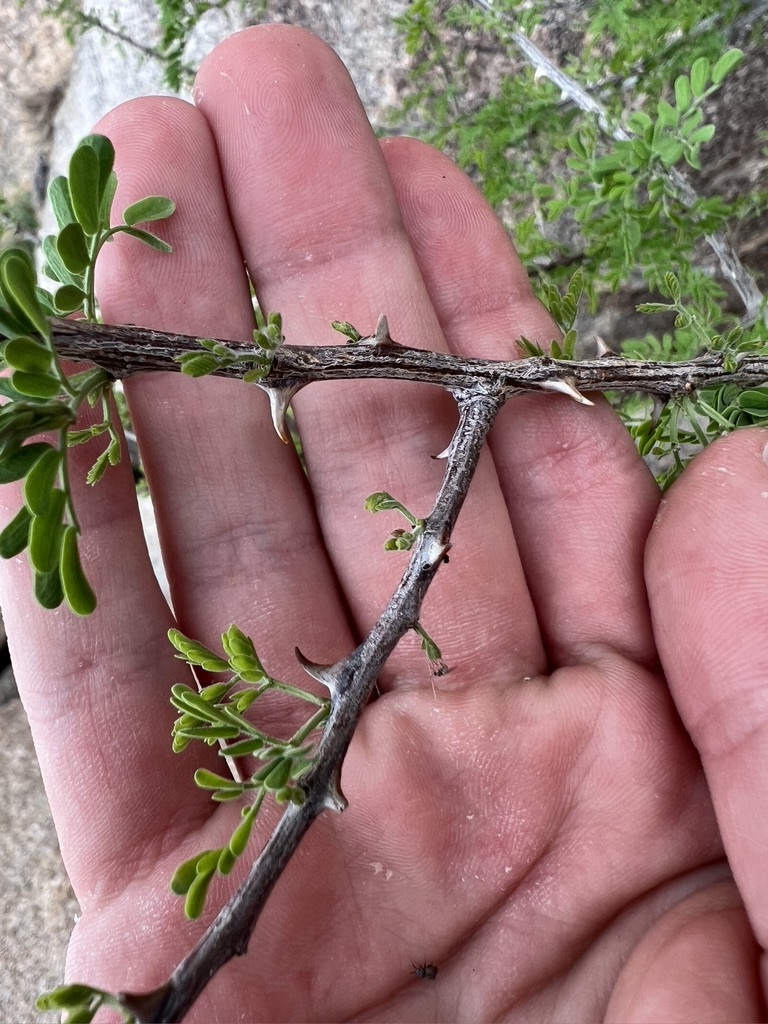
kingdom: Plantae
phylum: Tracheophyta
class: Magnoliopsida
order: Fabales
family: Fabaceae
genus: Senegalia
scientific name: Senegalia greggii
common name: Texas-mimosa
